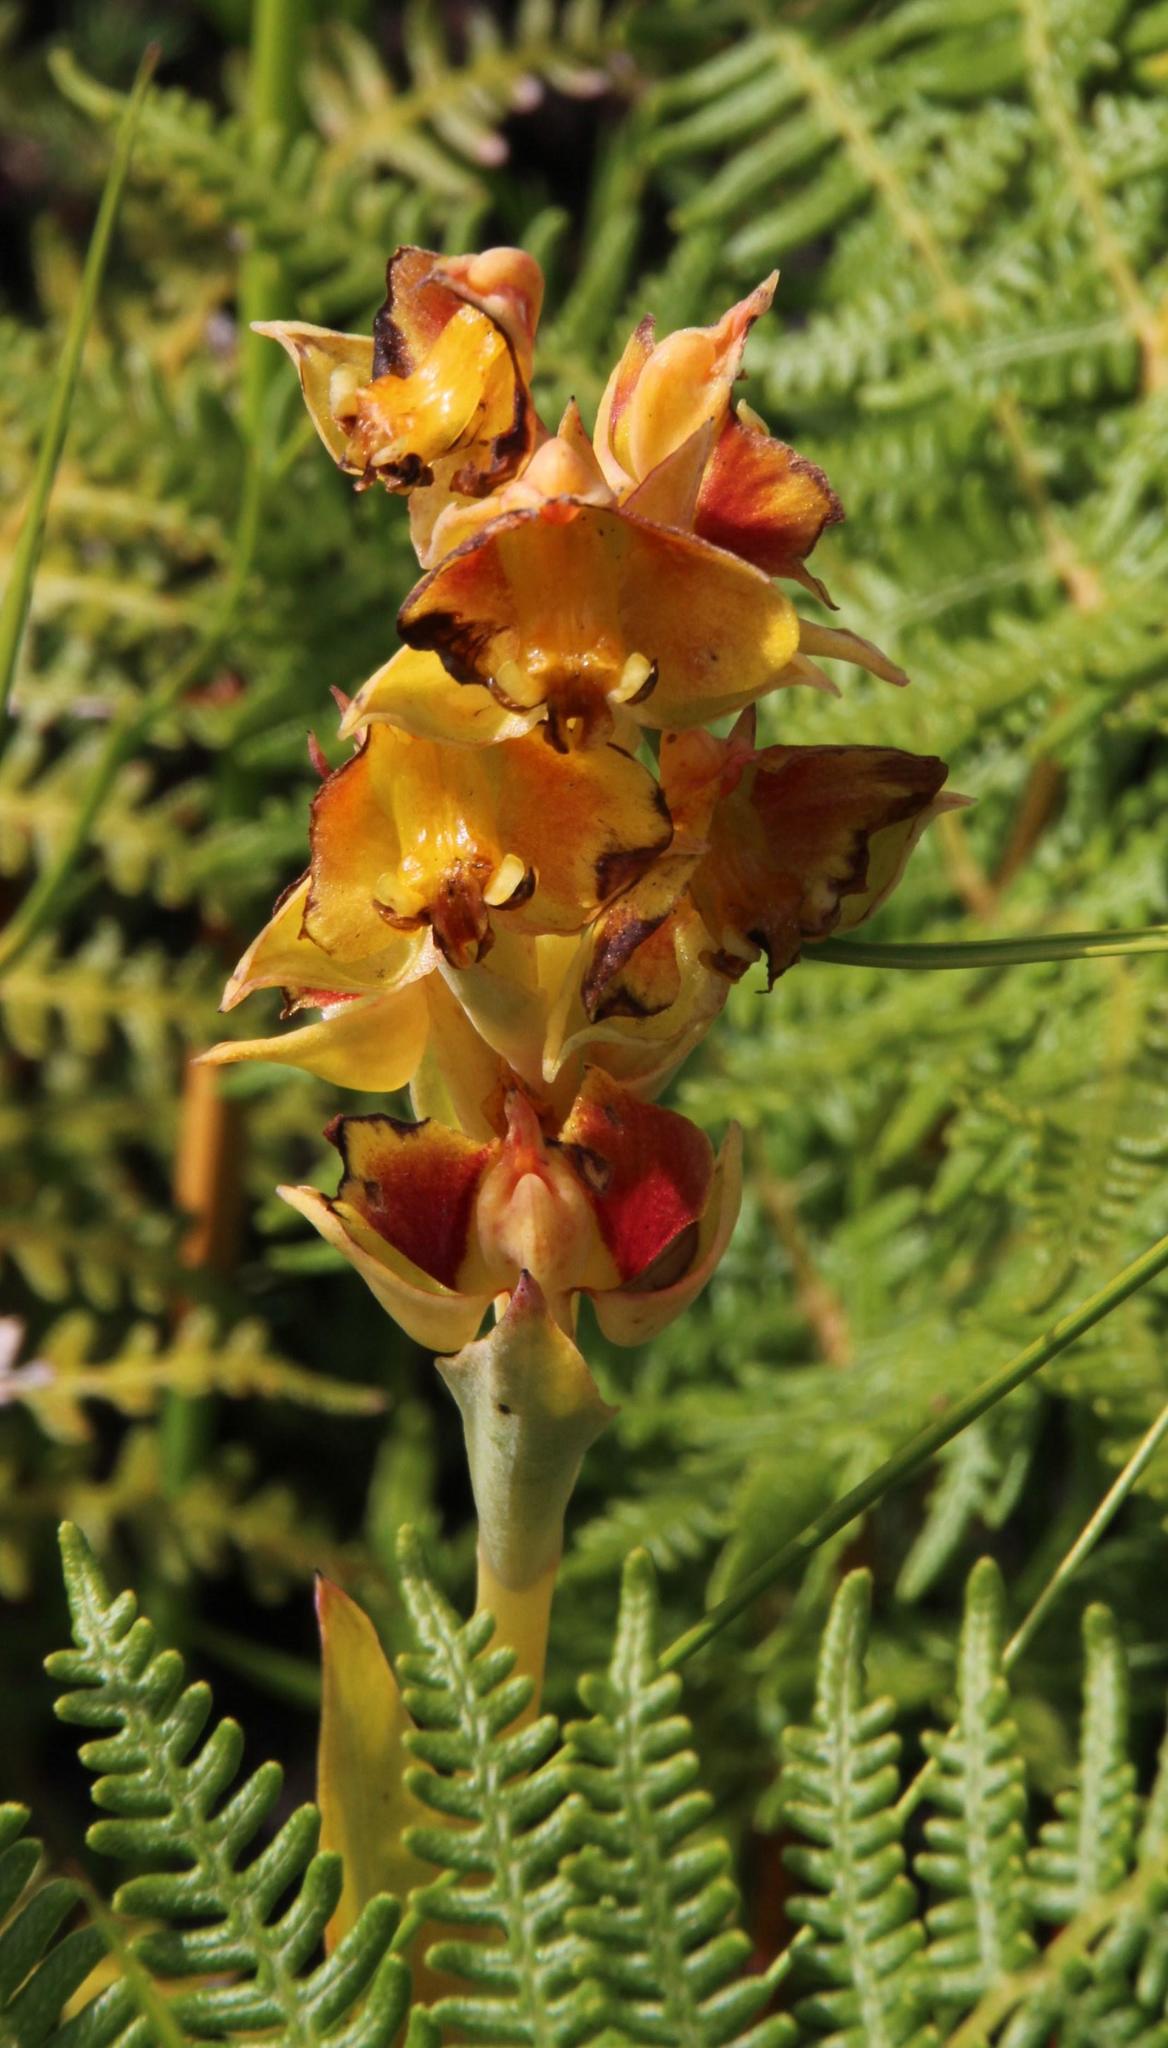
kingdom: Plantae
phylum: Tracheophyta
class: Liliopsida
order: Asparagales
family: Orchidaceae
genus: Pterygodium
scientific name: Pterygodium acutifolium
